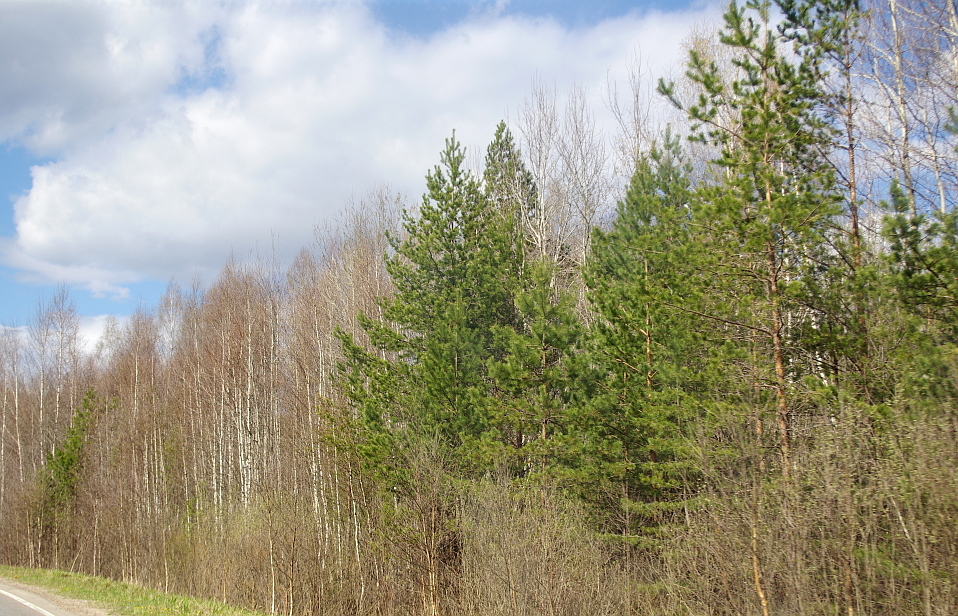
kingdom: Plantae
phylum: Tracheophyta
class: Pinopsida
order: Pinales
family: Pinaceae
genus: Pinus
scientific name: Pinus sylvestris
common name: Scots pine
